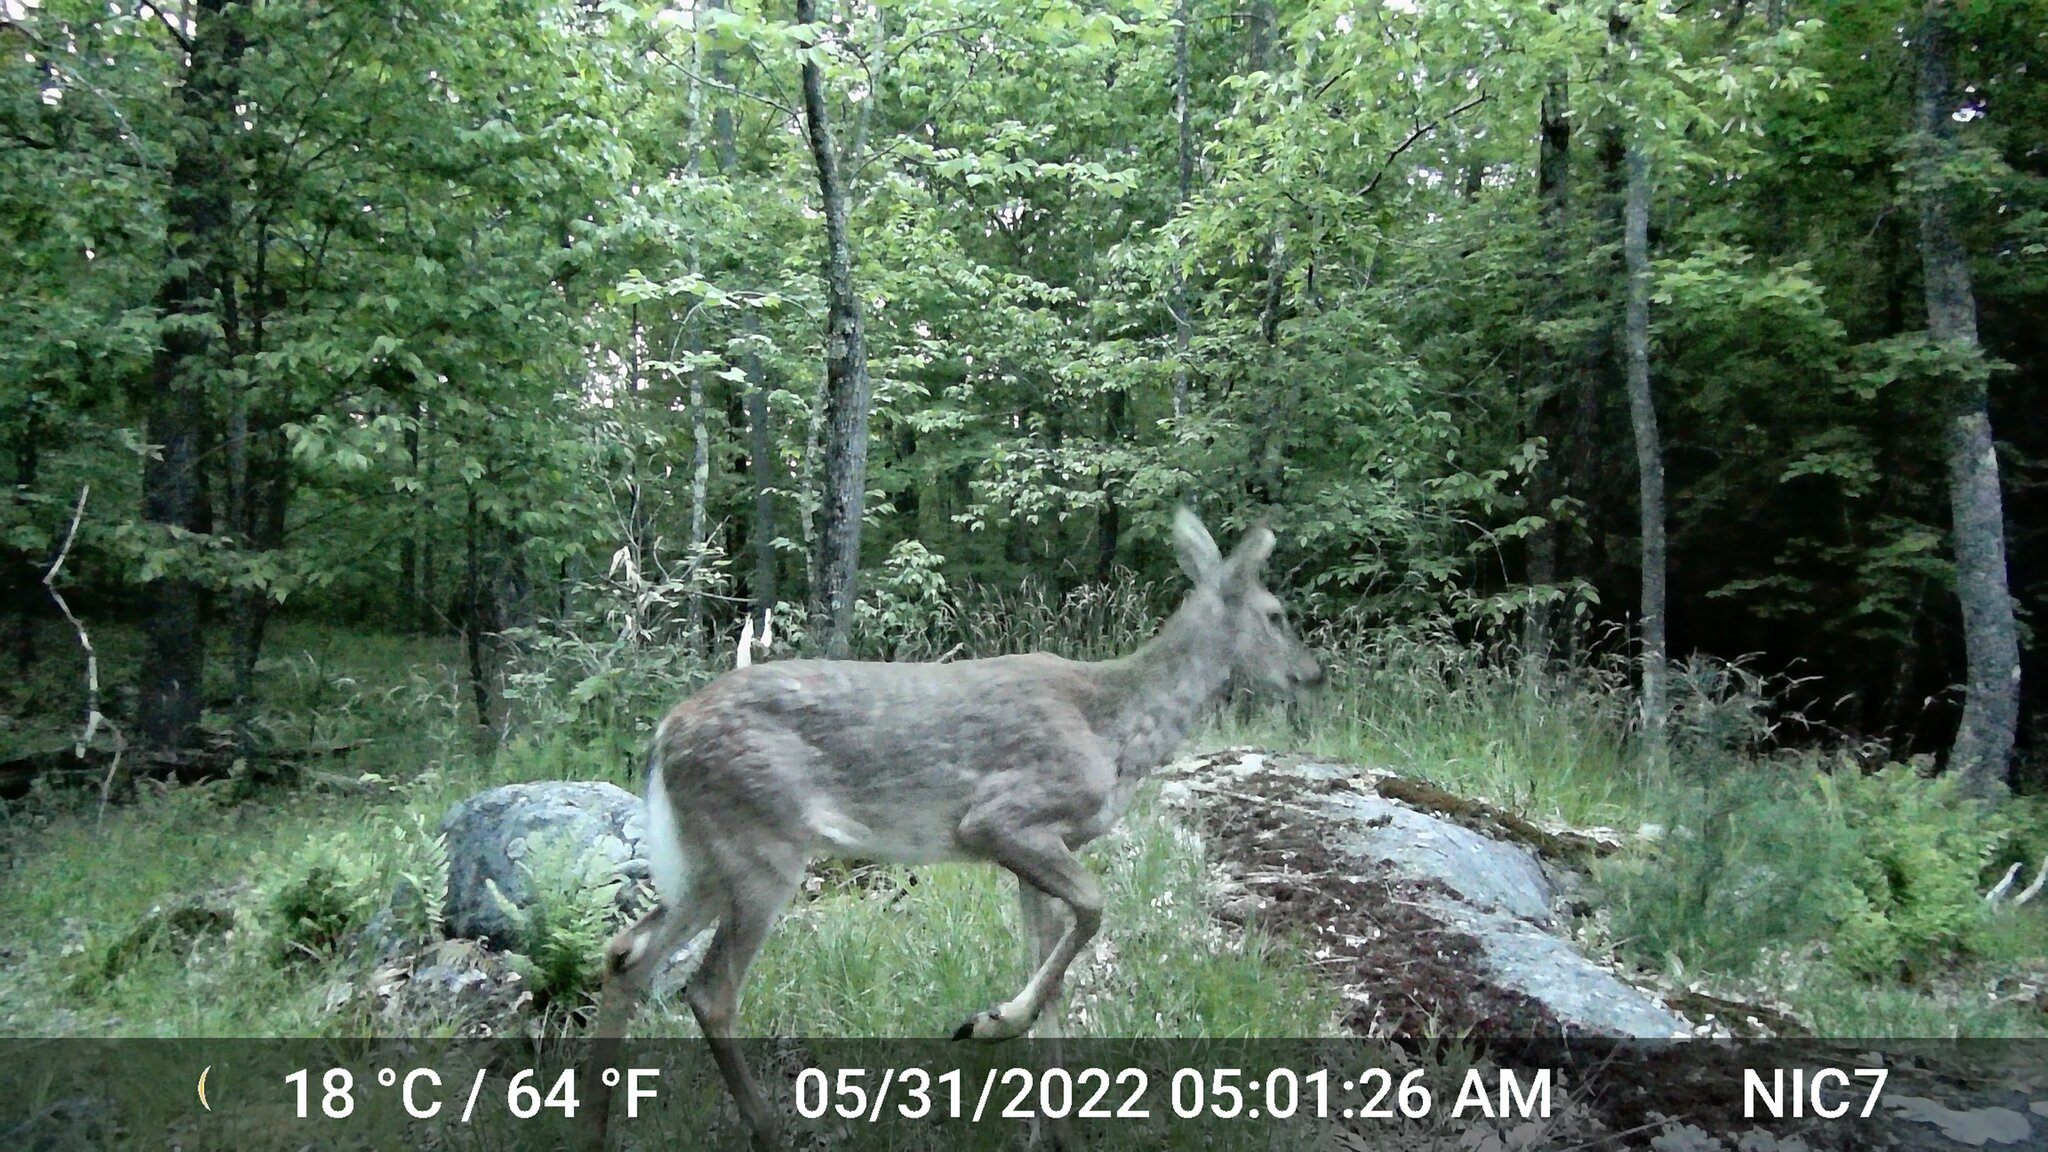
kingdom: Animalia
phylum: Chordata
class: Mammalia
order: Artiodactyla
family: Cervidae
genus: Odocoileus
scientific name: Odocoileus virginianus
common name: White-tailed deer
